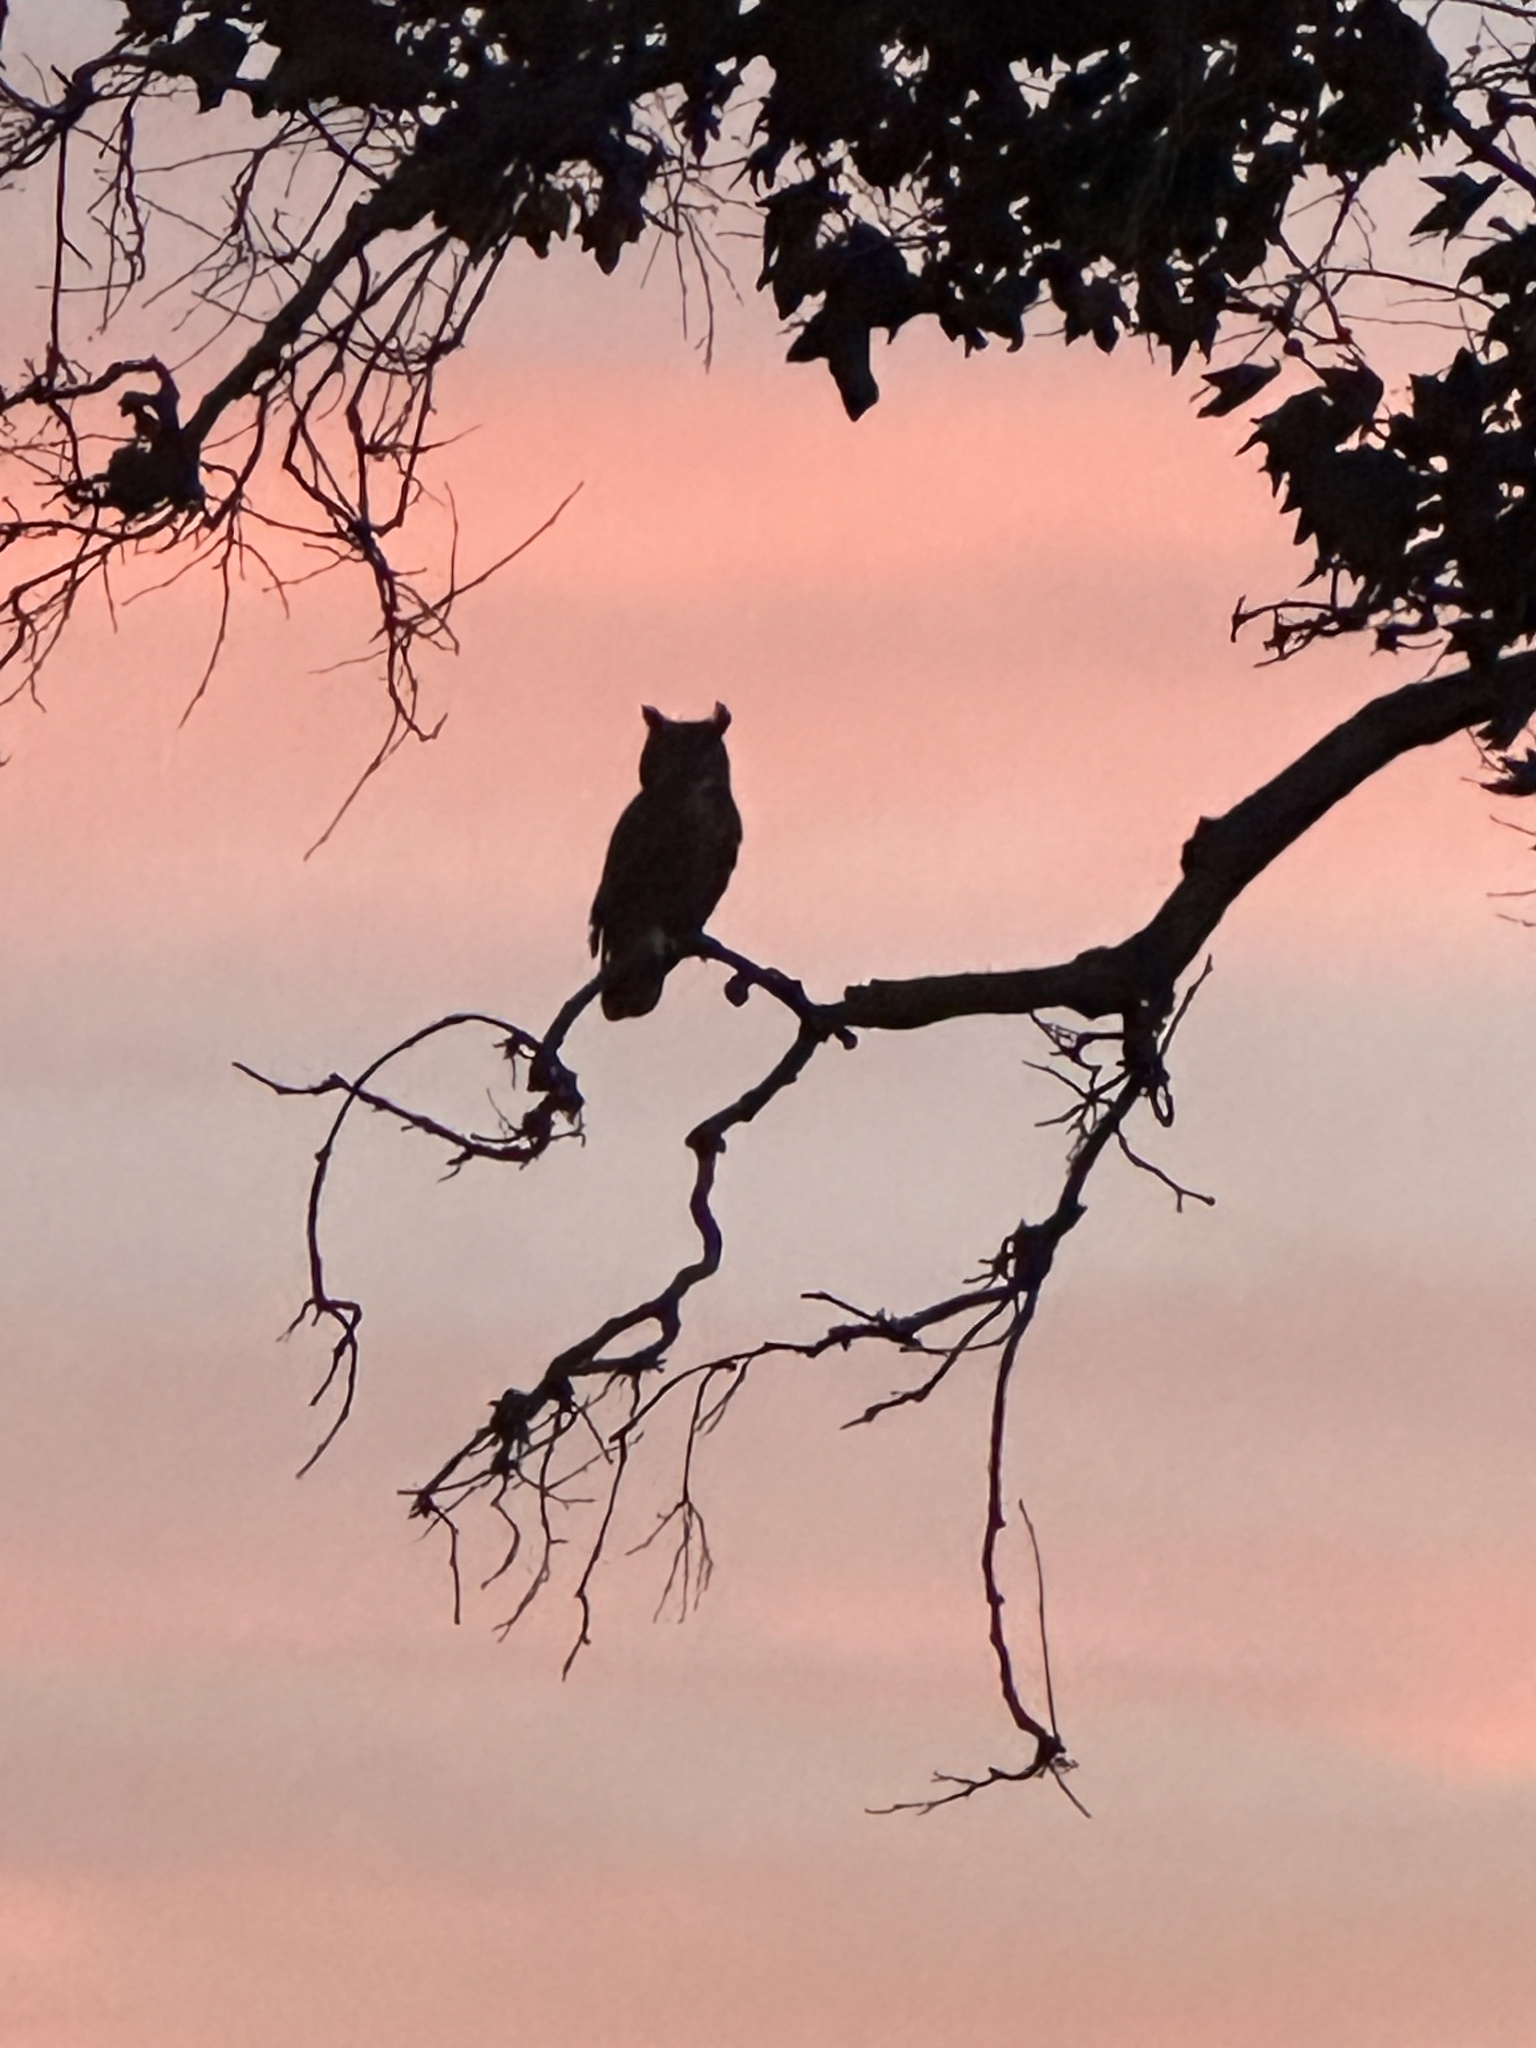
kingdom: Animalia
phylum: Chordata
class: Aves
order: Strigiformes
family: Strigidae
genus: Bubo
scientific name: Bubo virginianus
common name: Great horned owl
